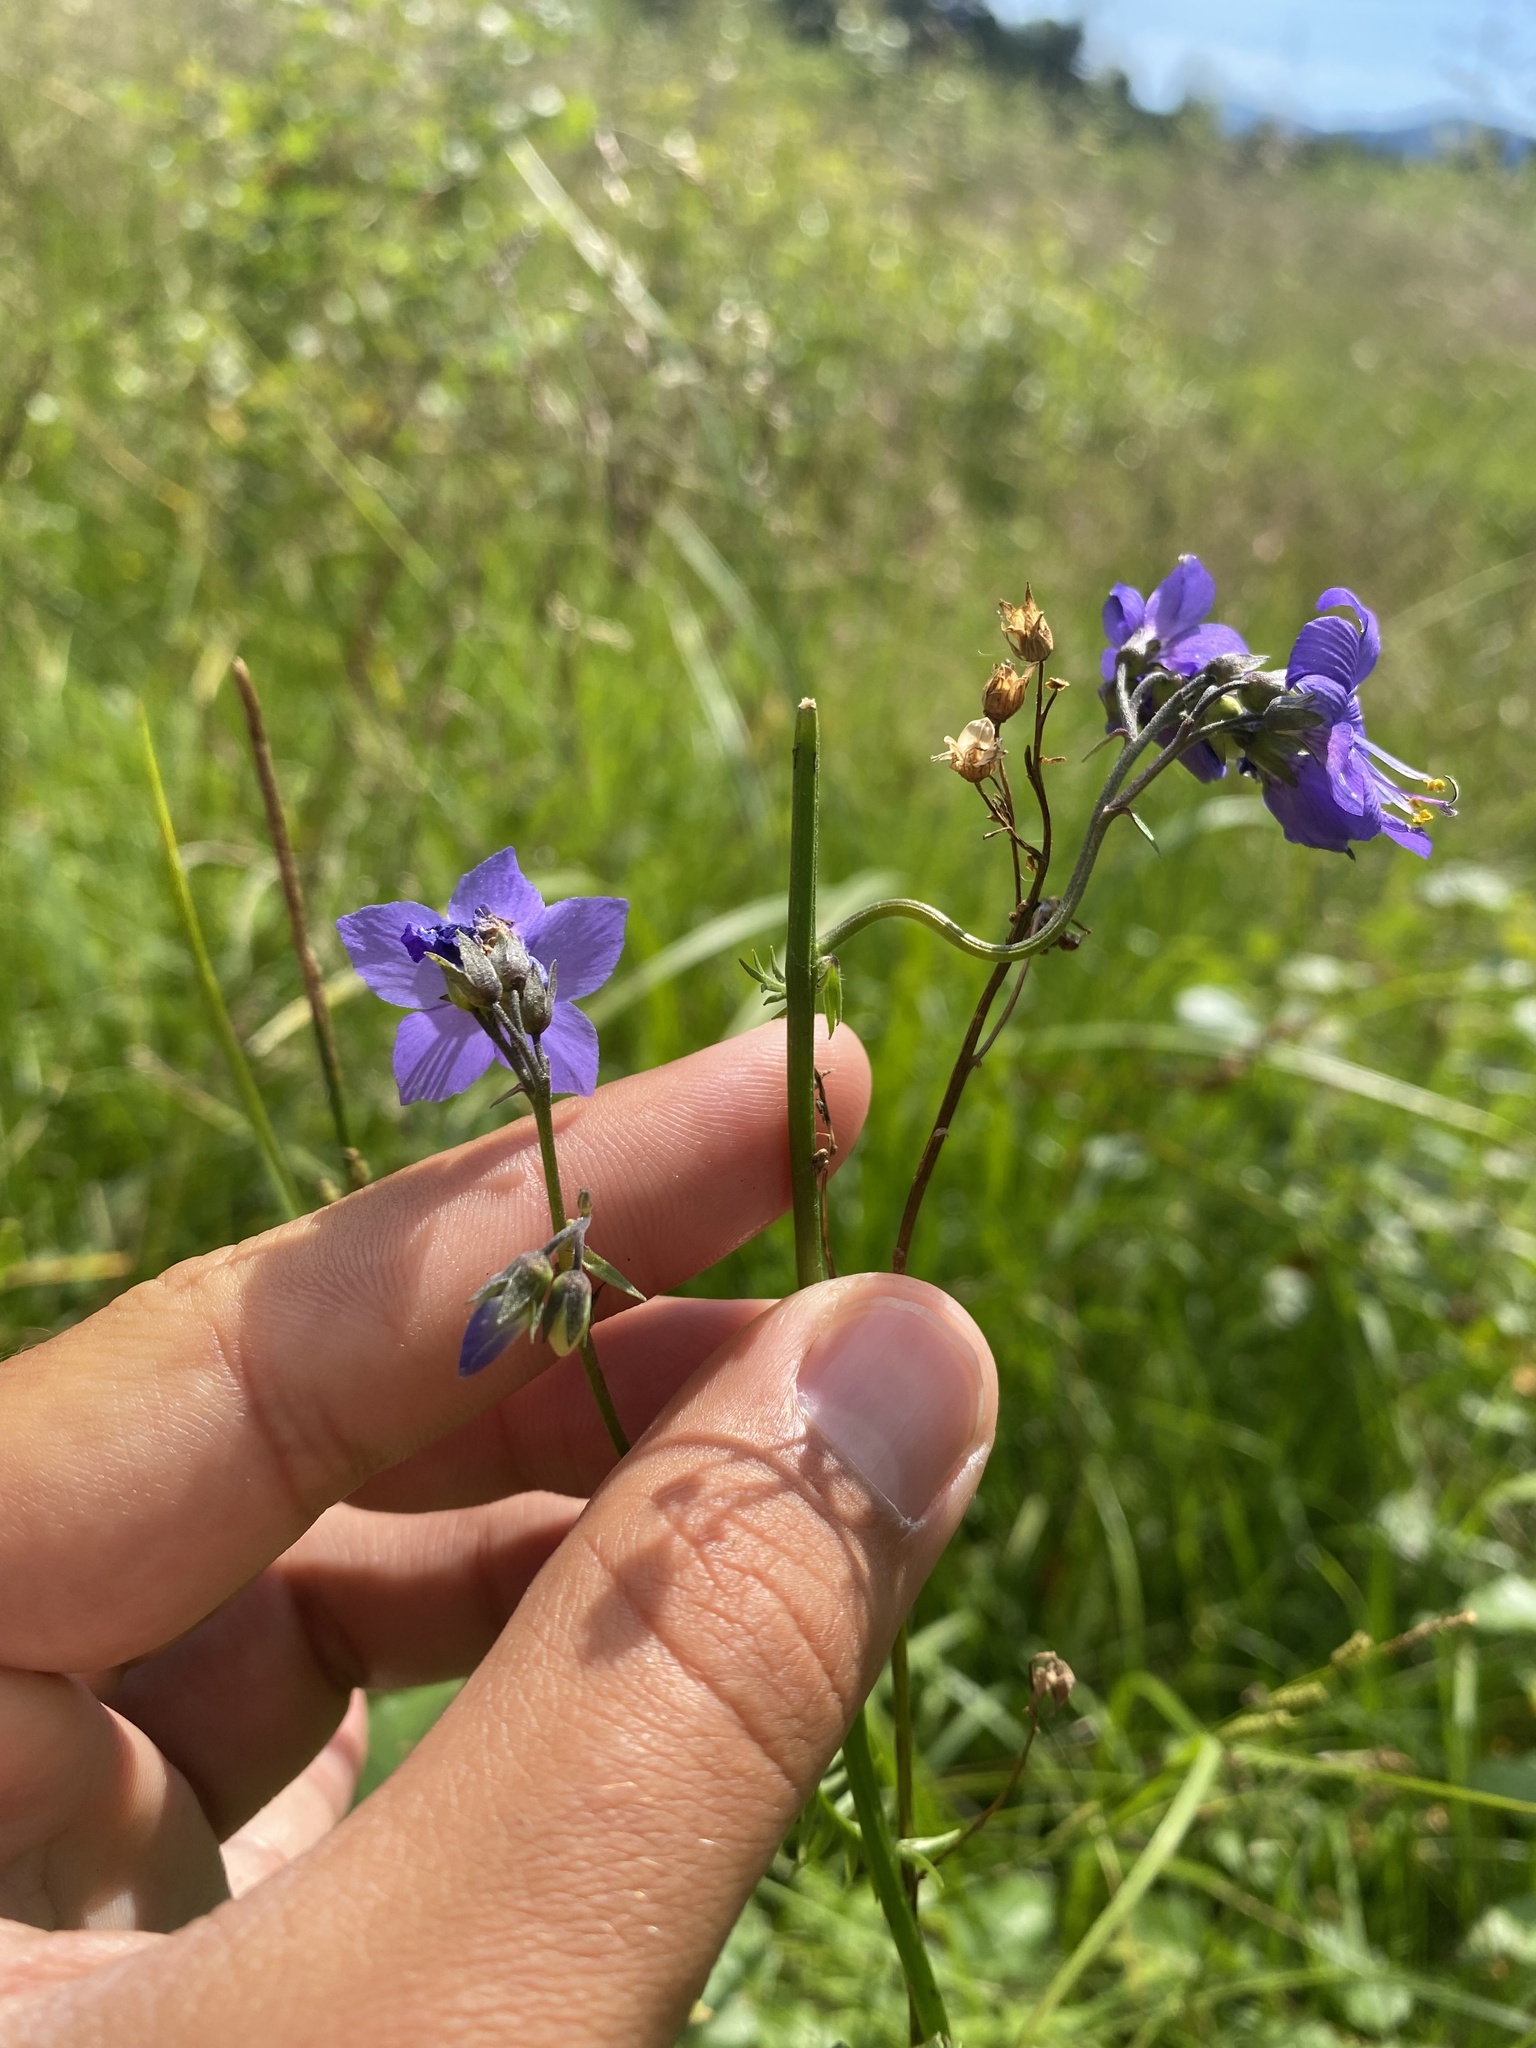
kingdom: Plantae
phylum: Tracheophyta
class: Magnoliopsida
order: Ericales
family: Polemoniaceae
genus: Polemonium
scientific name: Polemonium acutiflorum
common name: Tall jacob's-ladder
